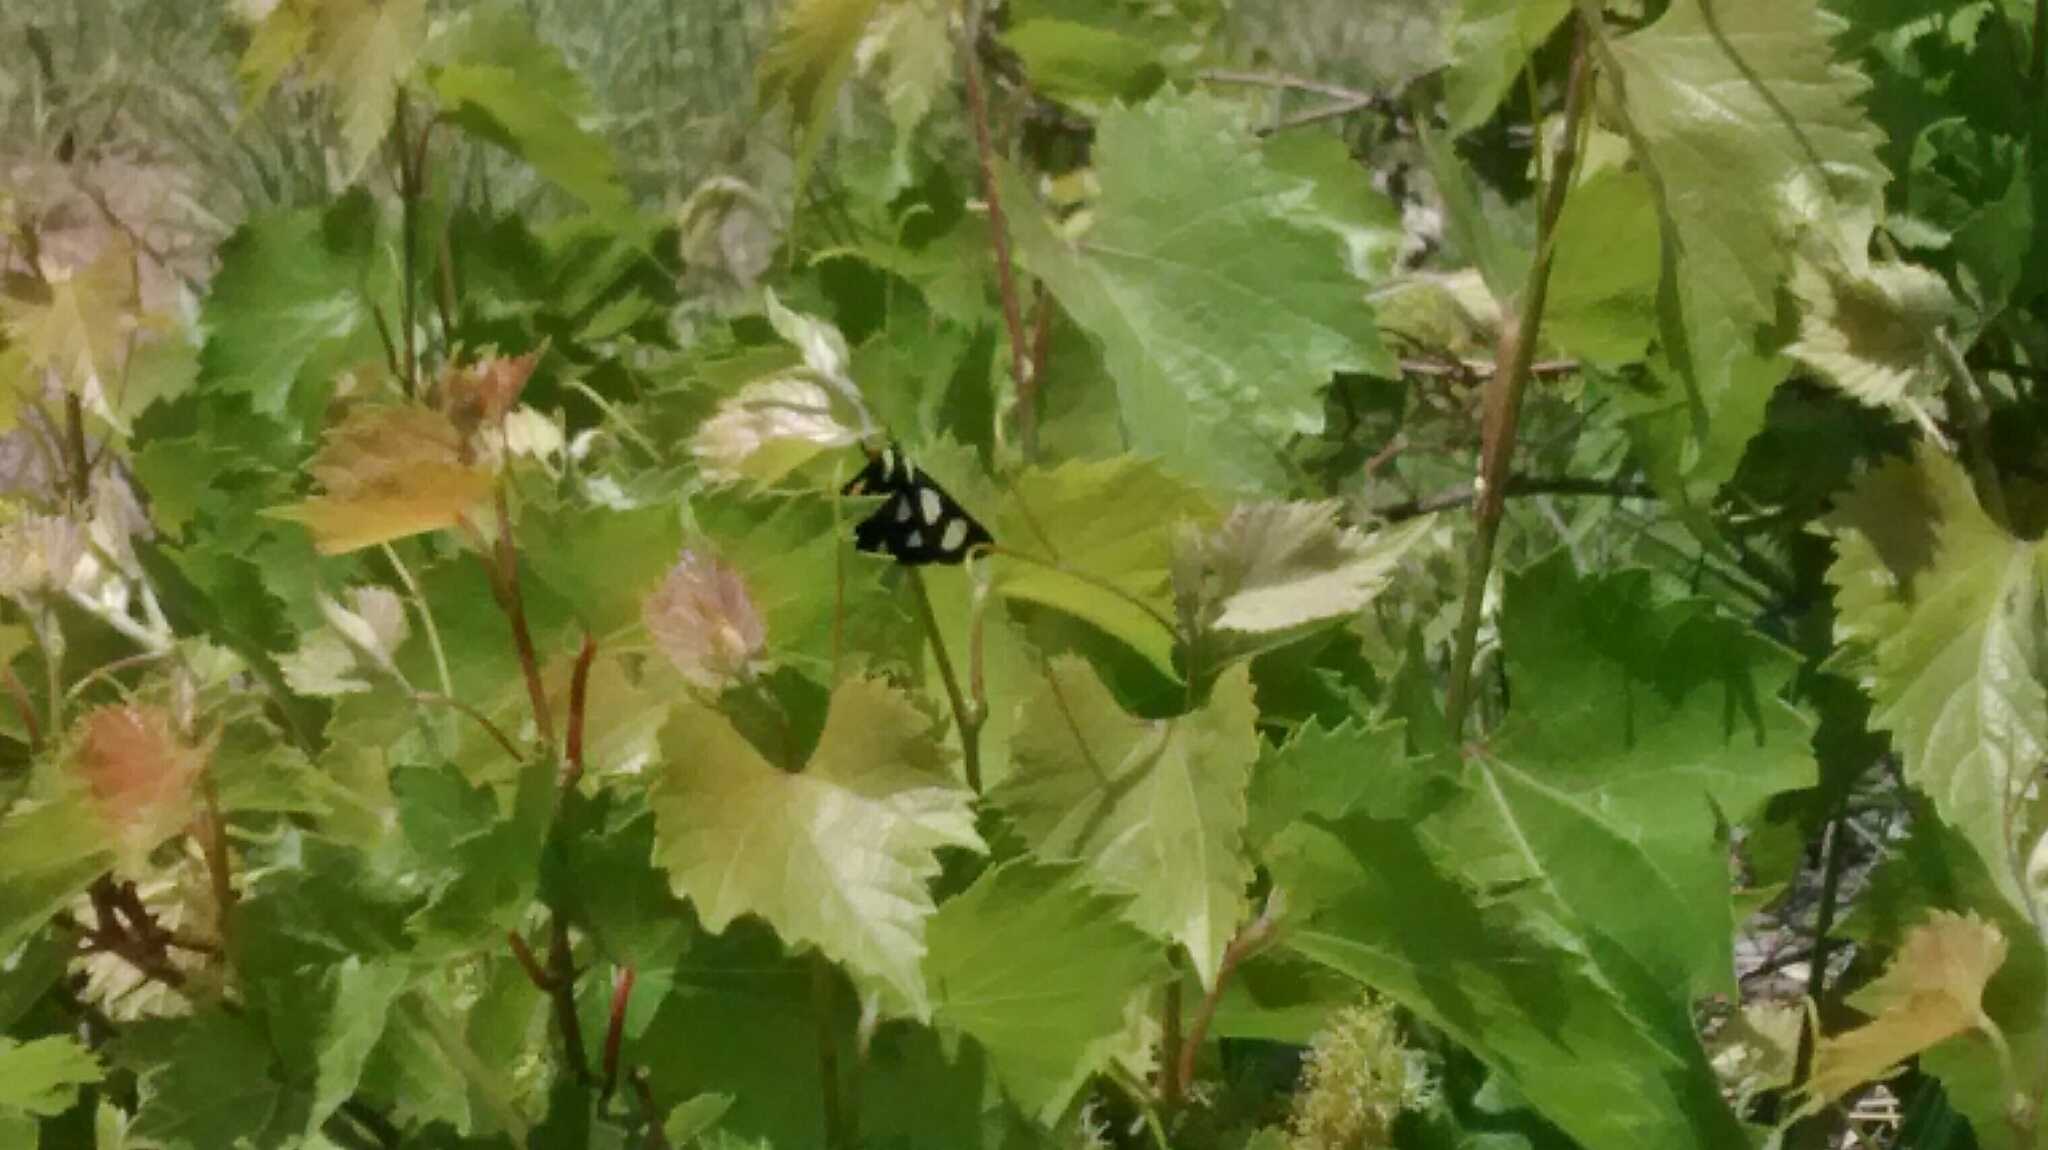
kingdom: Animalia
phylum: Arthropoda
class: Insecta
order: Lepidoptera
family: Noctuidae
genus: Alypia
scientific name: Alypia octomaculata
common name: Eight-spotted forester
